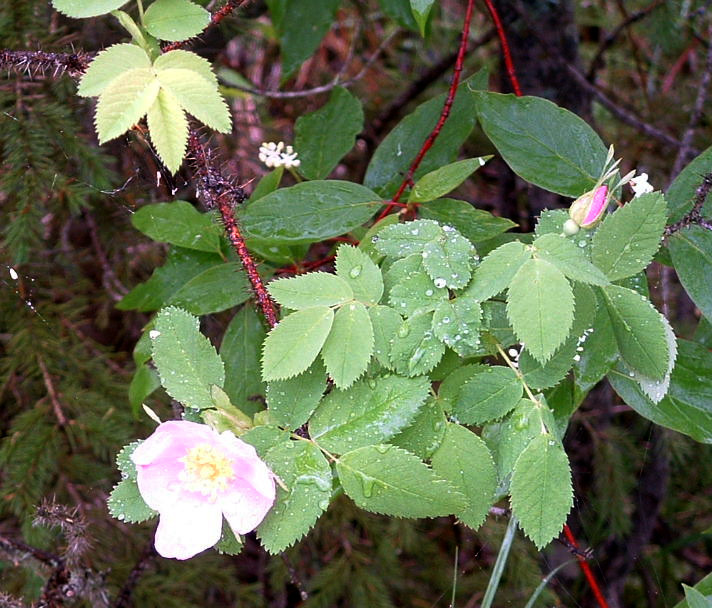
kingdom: Plantae
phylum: Tracheophyta
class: Magnoliopsida
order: Rosales
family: Rosaceae
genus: Rosa
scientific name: Rosa acicularis
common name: Prickly rose
